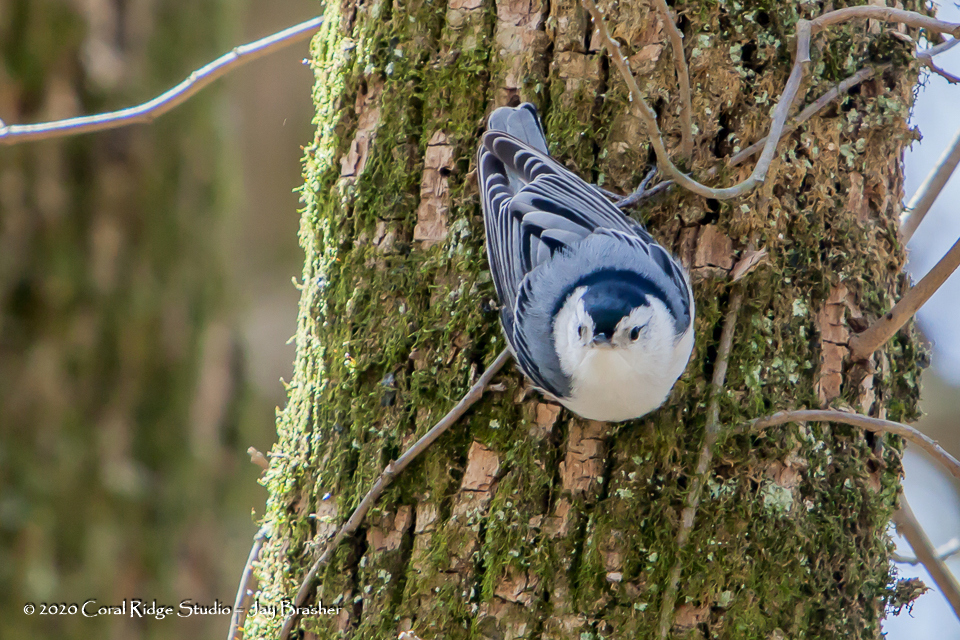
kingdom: Animalia
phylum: Chordata
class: Aves
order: Passeriformes
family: Sittidae
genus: Sitta
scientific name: Sitta carolinensis
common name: White-breasted nuthatch
